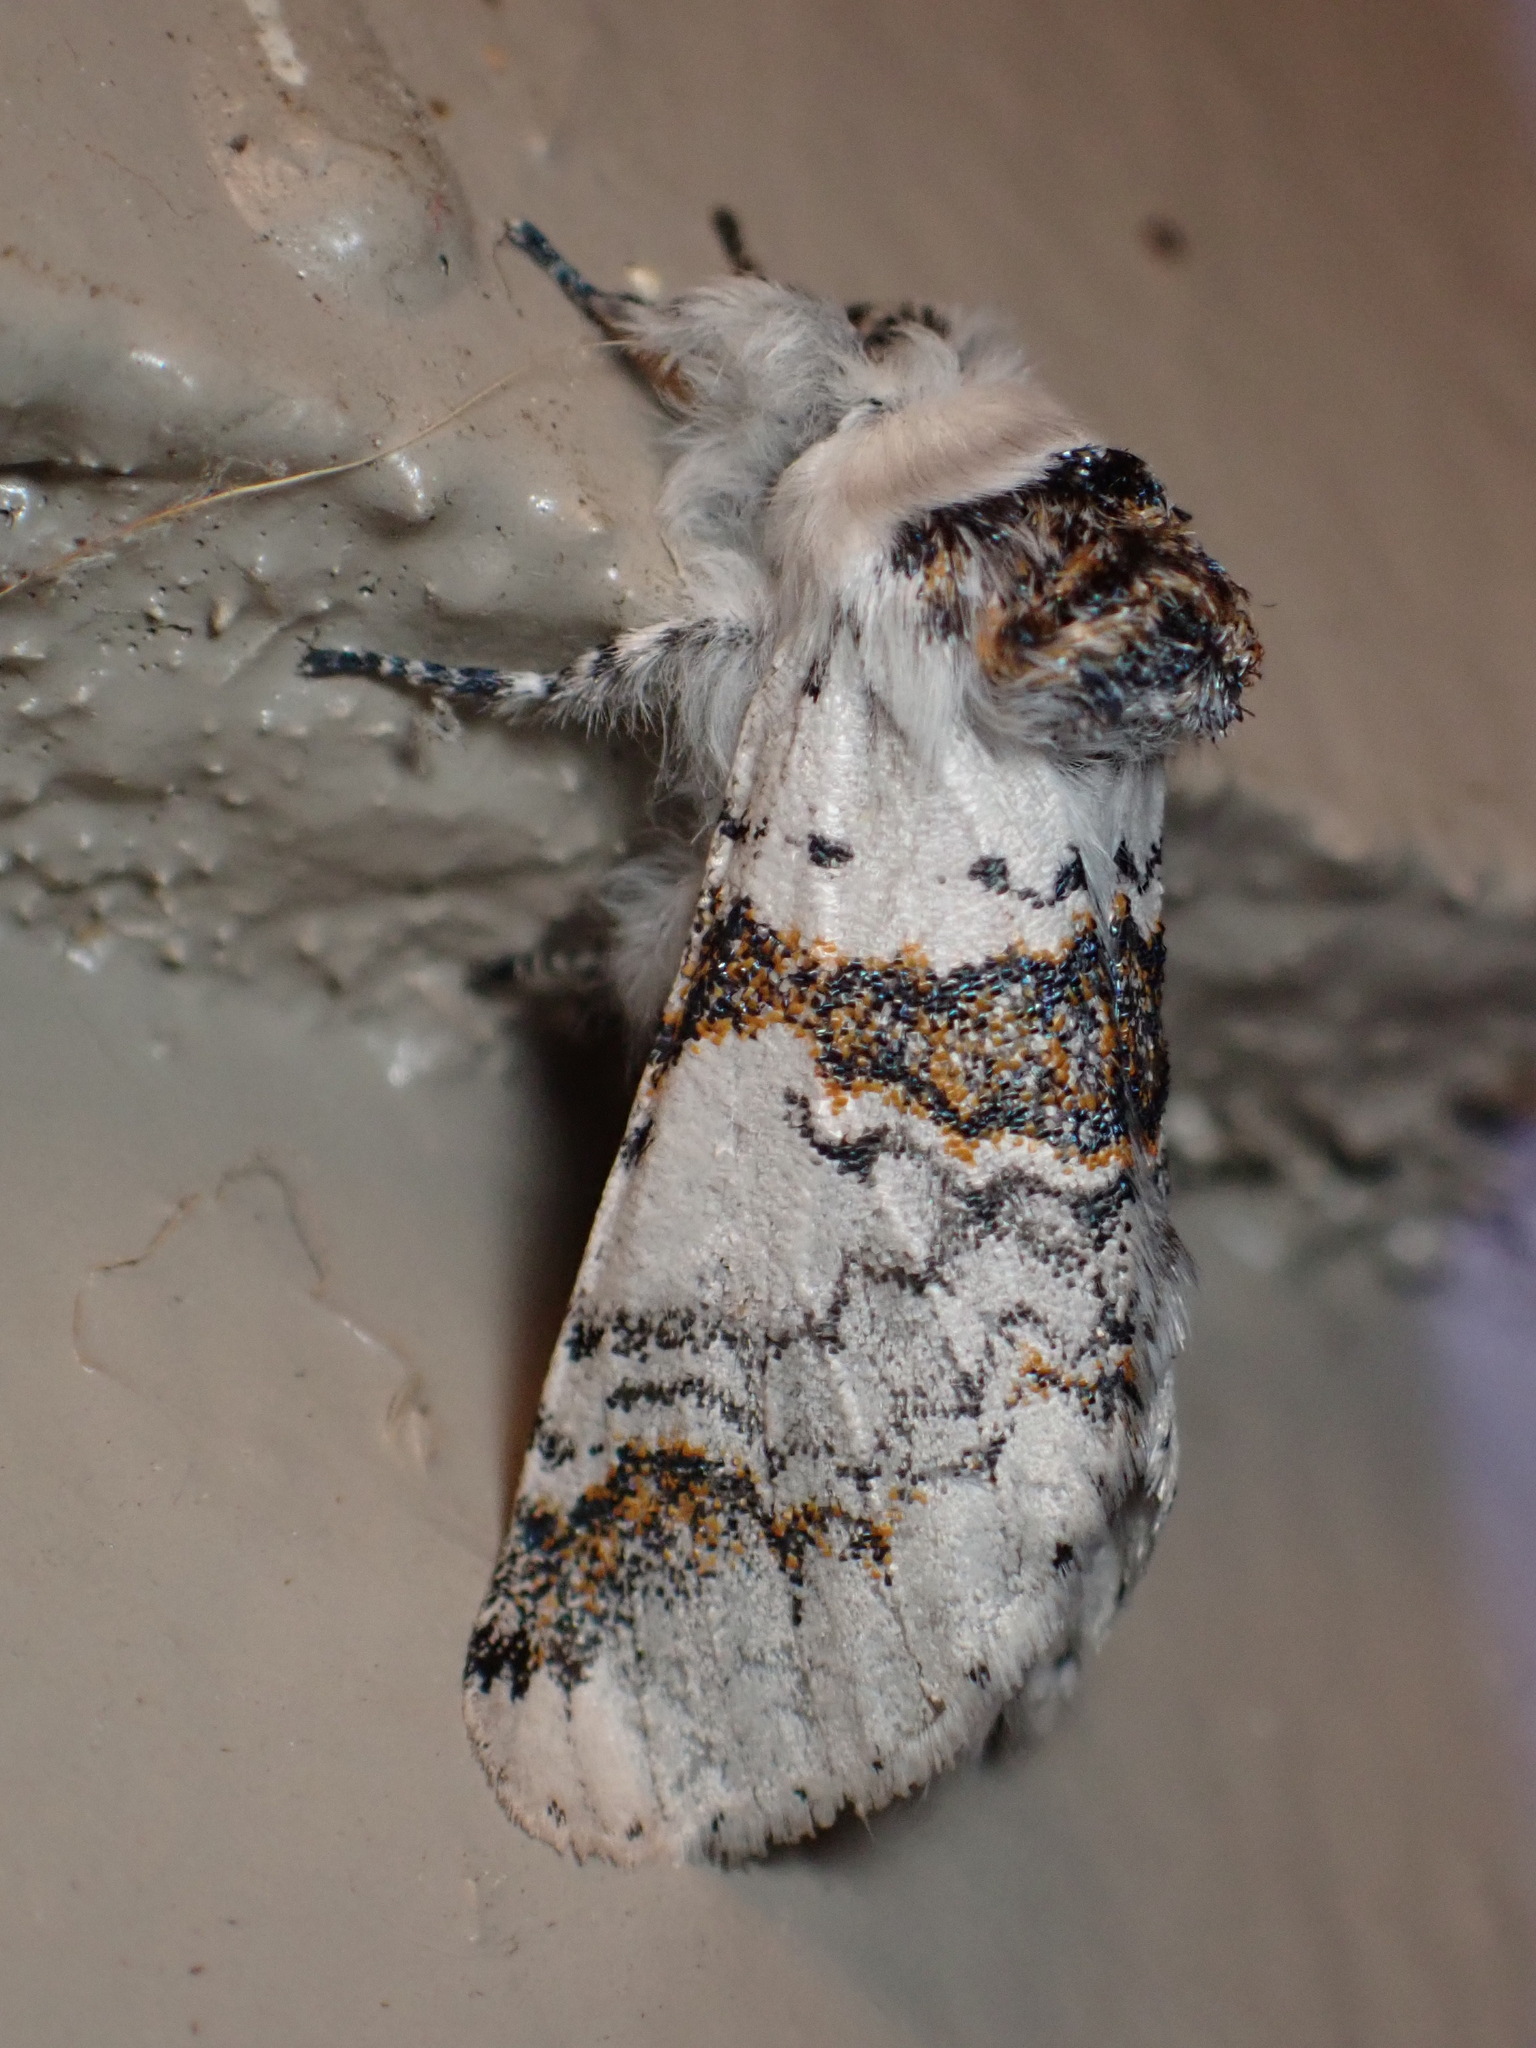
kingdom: Animalia
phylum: Arthropoda
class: Insecta
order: Lepidoptera
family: Notodontidae
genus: Furcula
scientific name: Furcula scolopendrina
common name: Zigzag furcula moth
